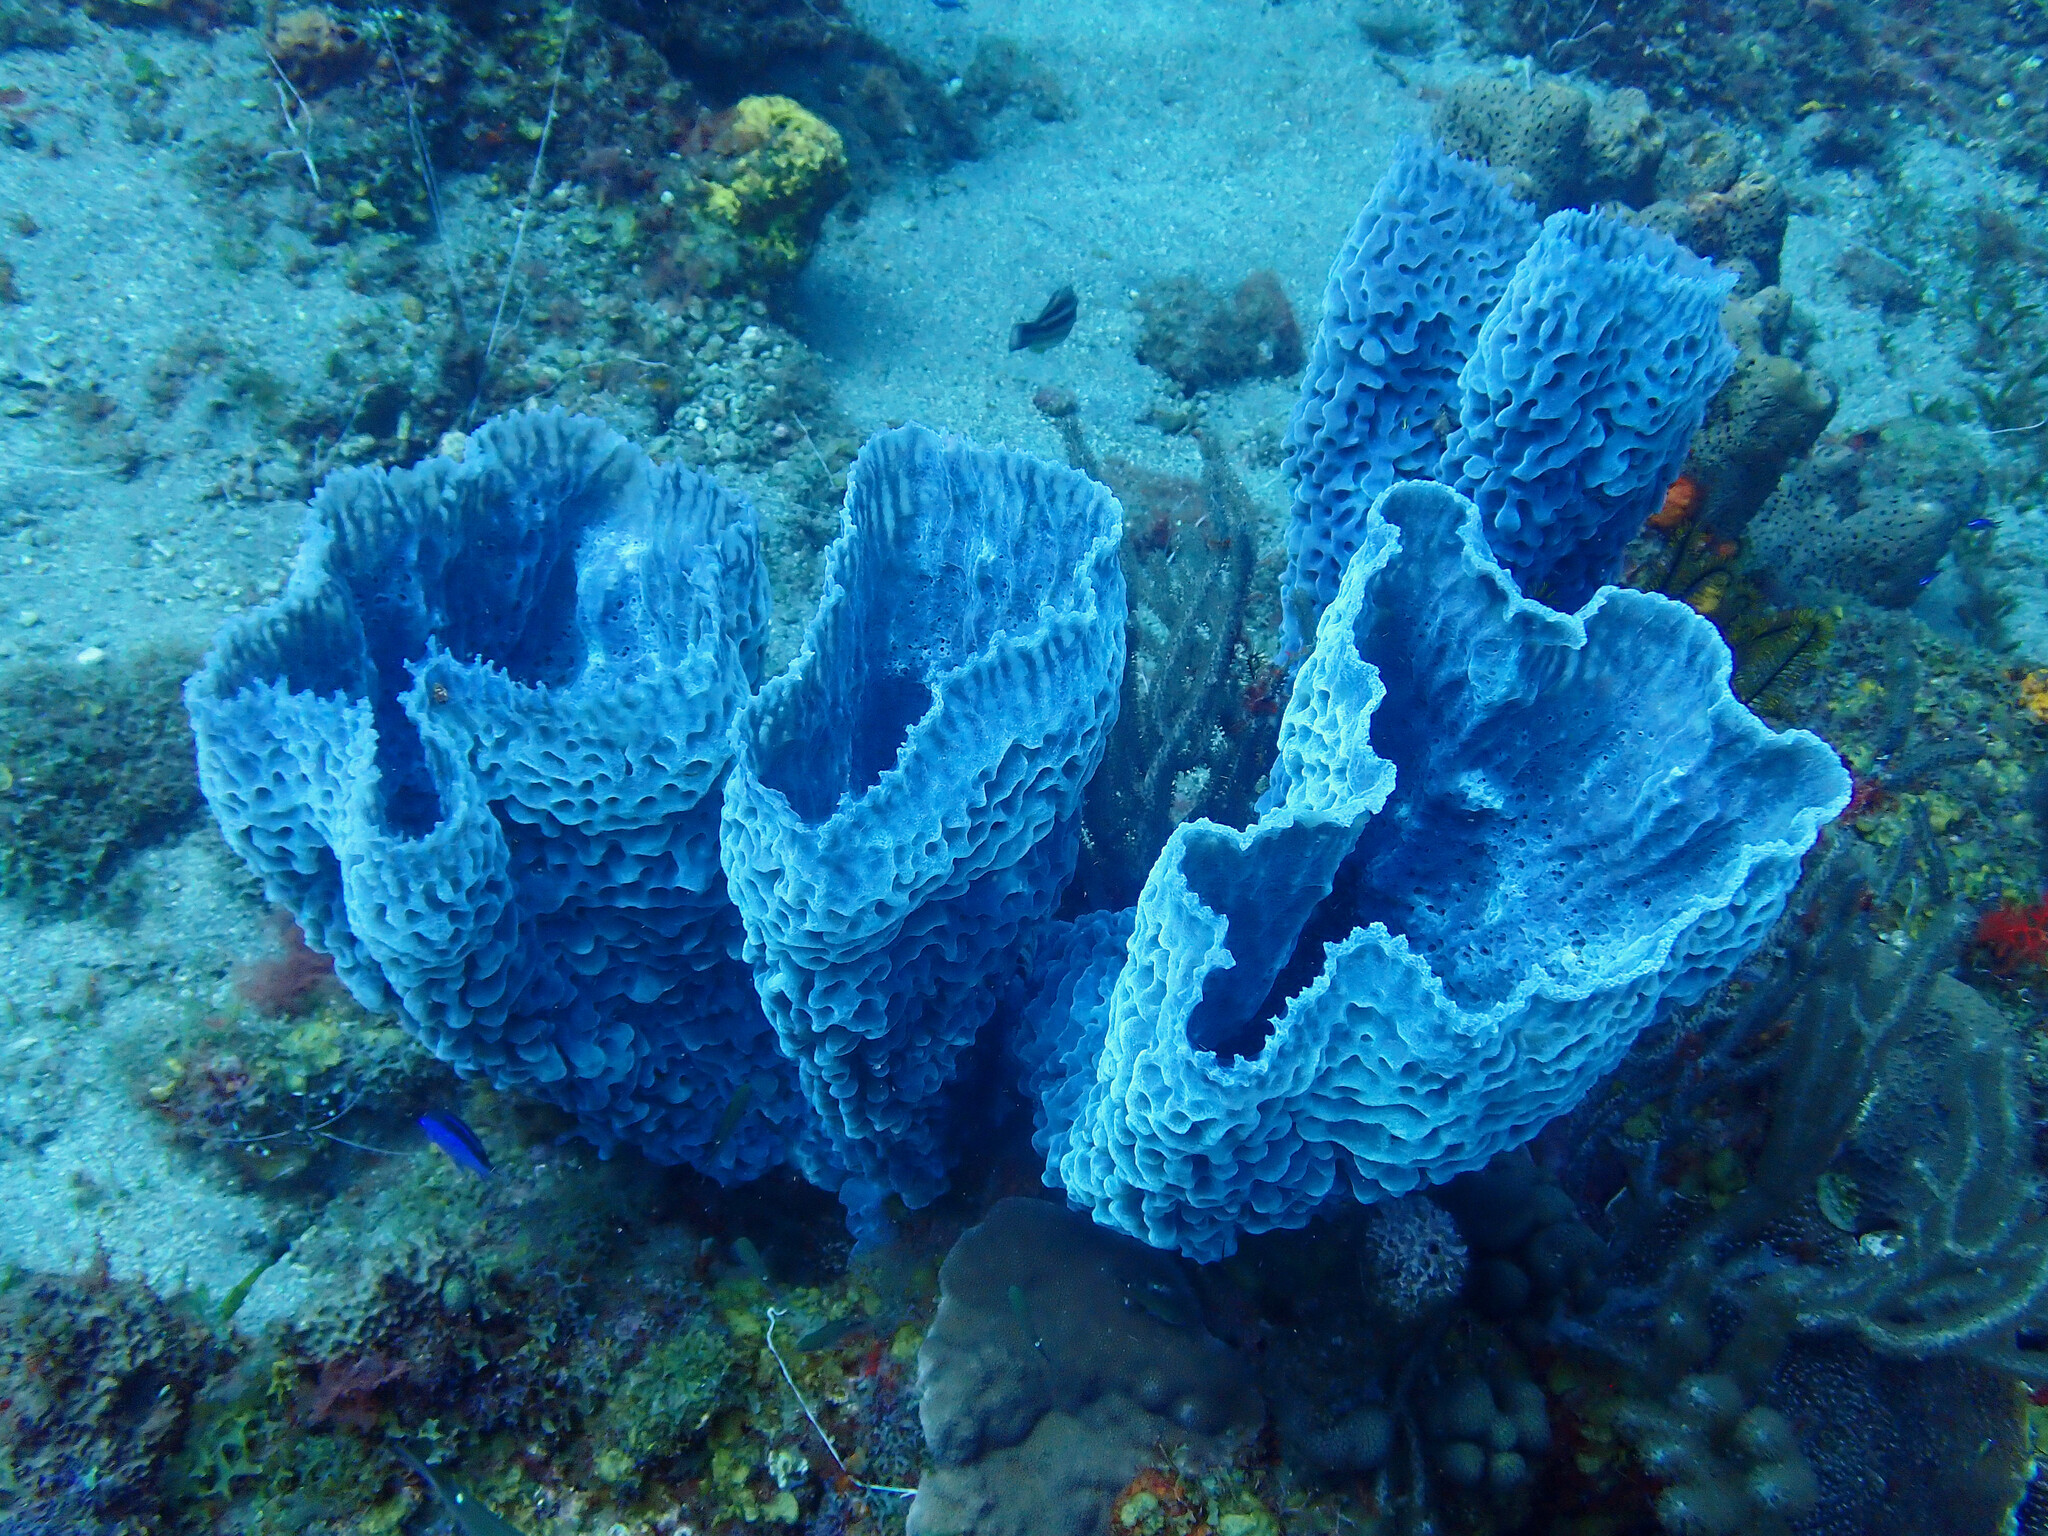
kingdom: Animalia
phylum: Porifera
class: Demospongiae
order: Haplosclerida
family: Callyspongiidae
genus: Callyspongia
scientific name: Callyspongia plicifera
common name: Azure vase sponge
